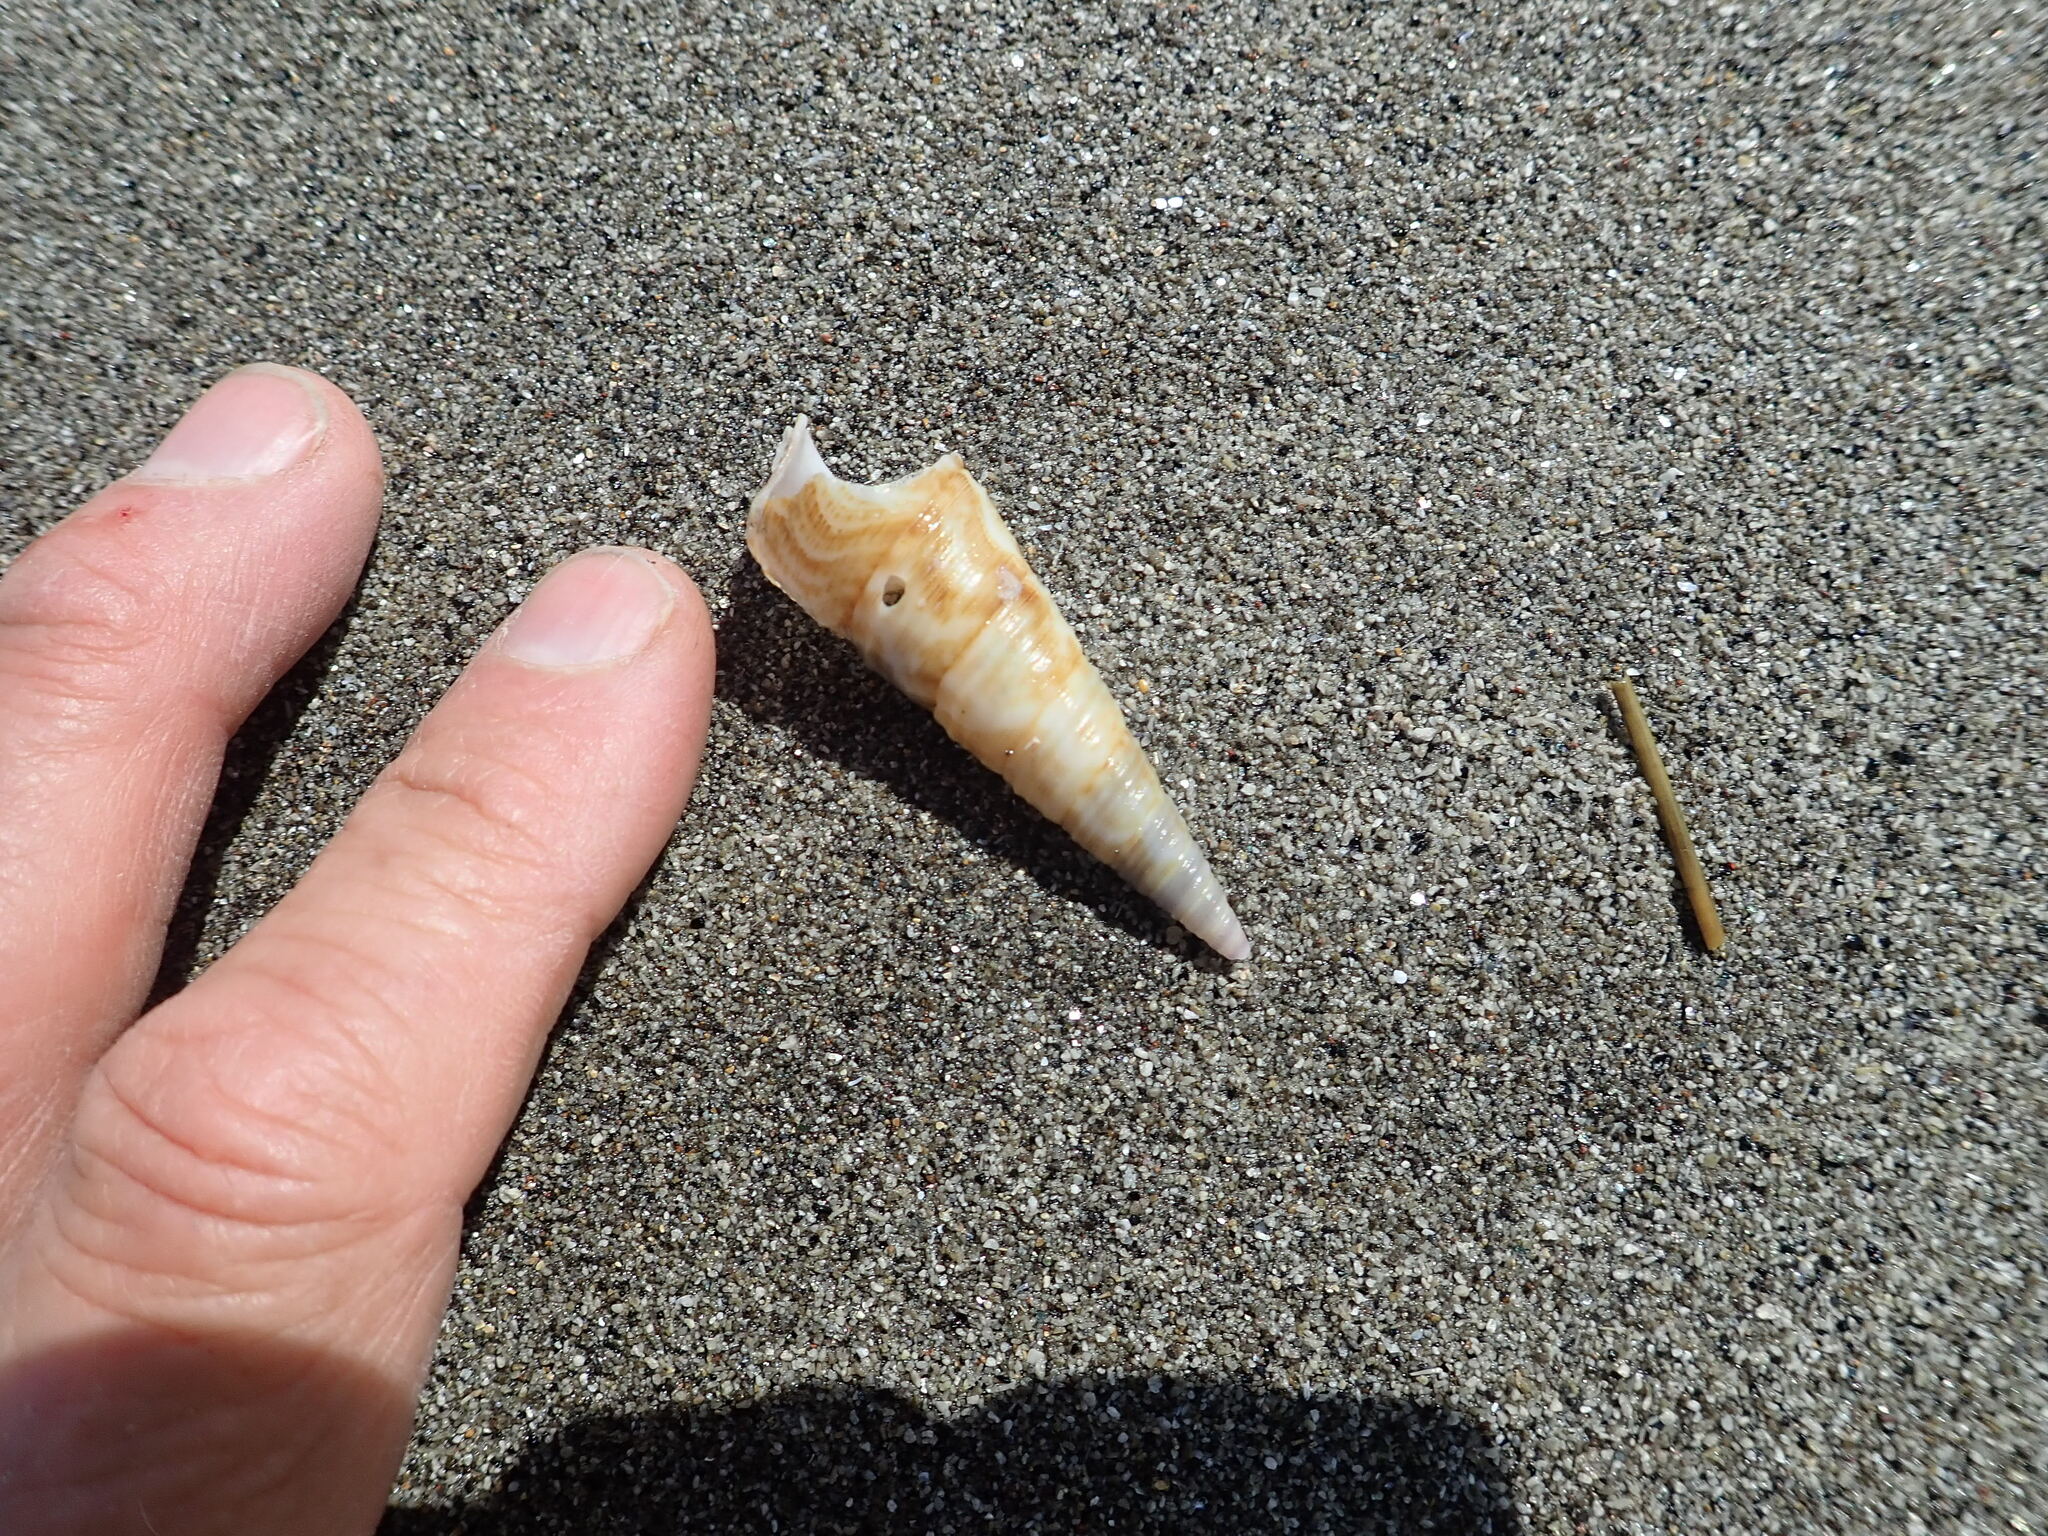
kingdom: Animalia
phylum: Mollusca
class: Gastropoda
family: Turritellidae
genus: Maoricolpus
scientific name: Maoricolpus roseus
